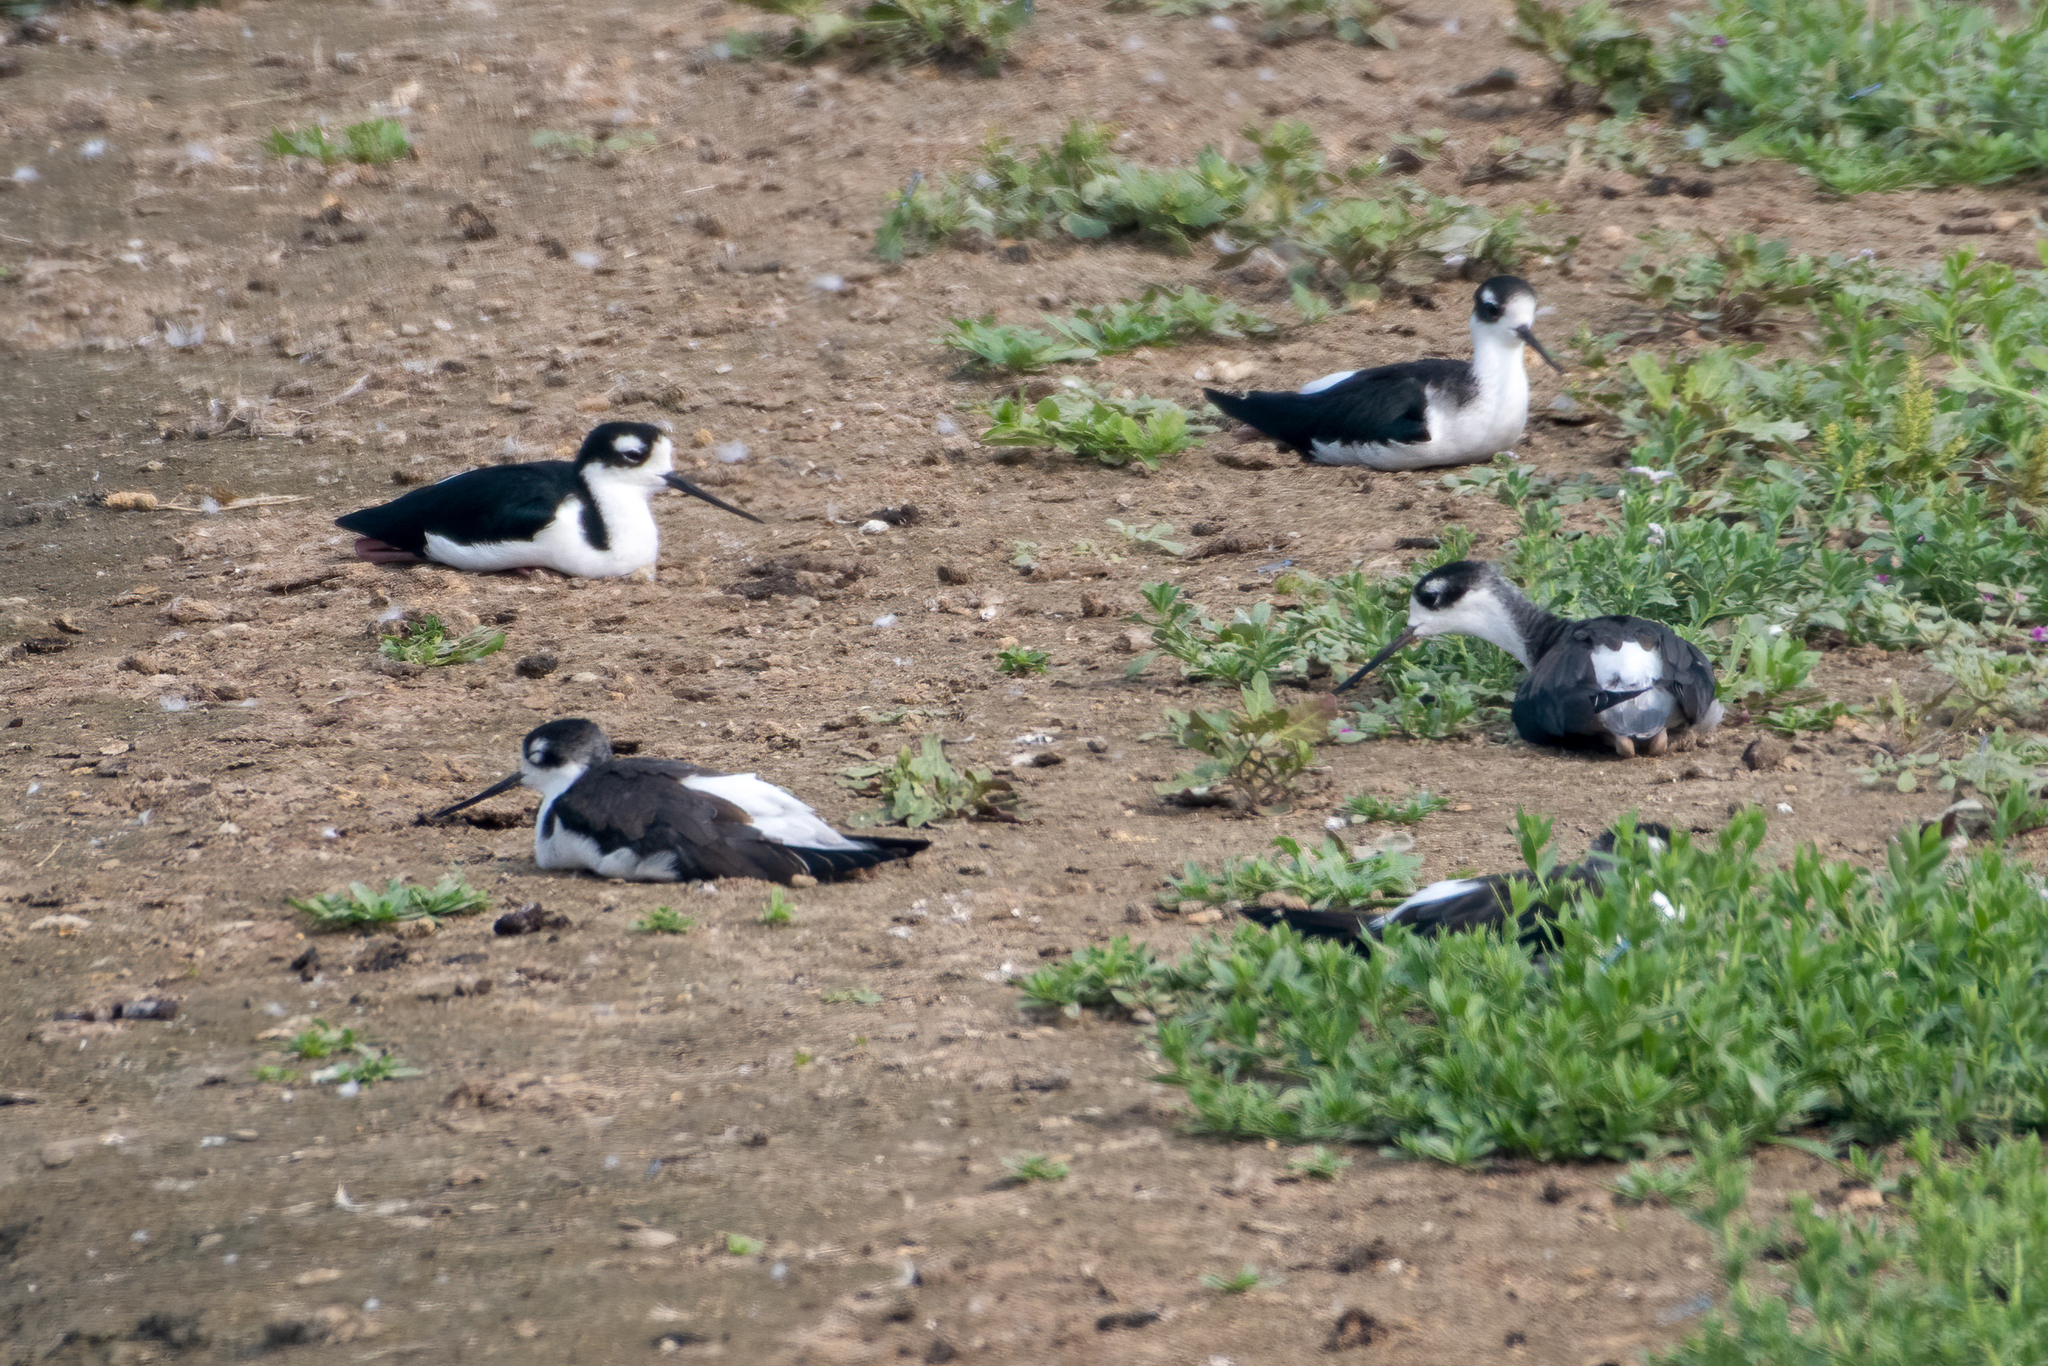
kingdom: Animalia
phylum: Chordata
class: Aves
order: Charadriiformes
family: Recurvirostridae
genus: Himantopus
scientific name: Himantopus mexicanus
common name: Black-necked stilt
